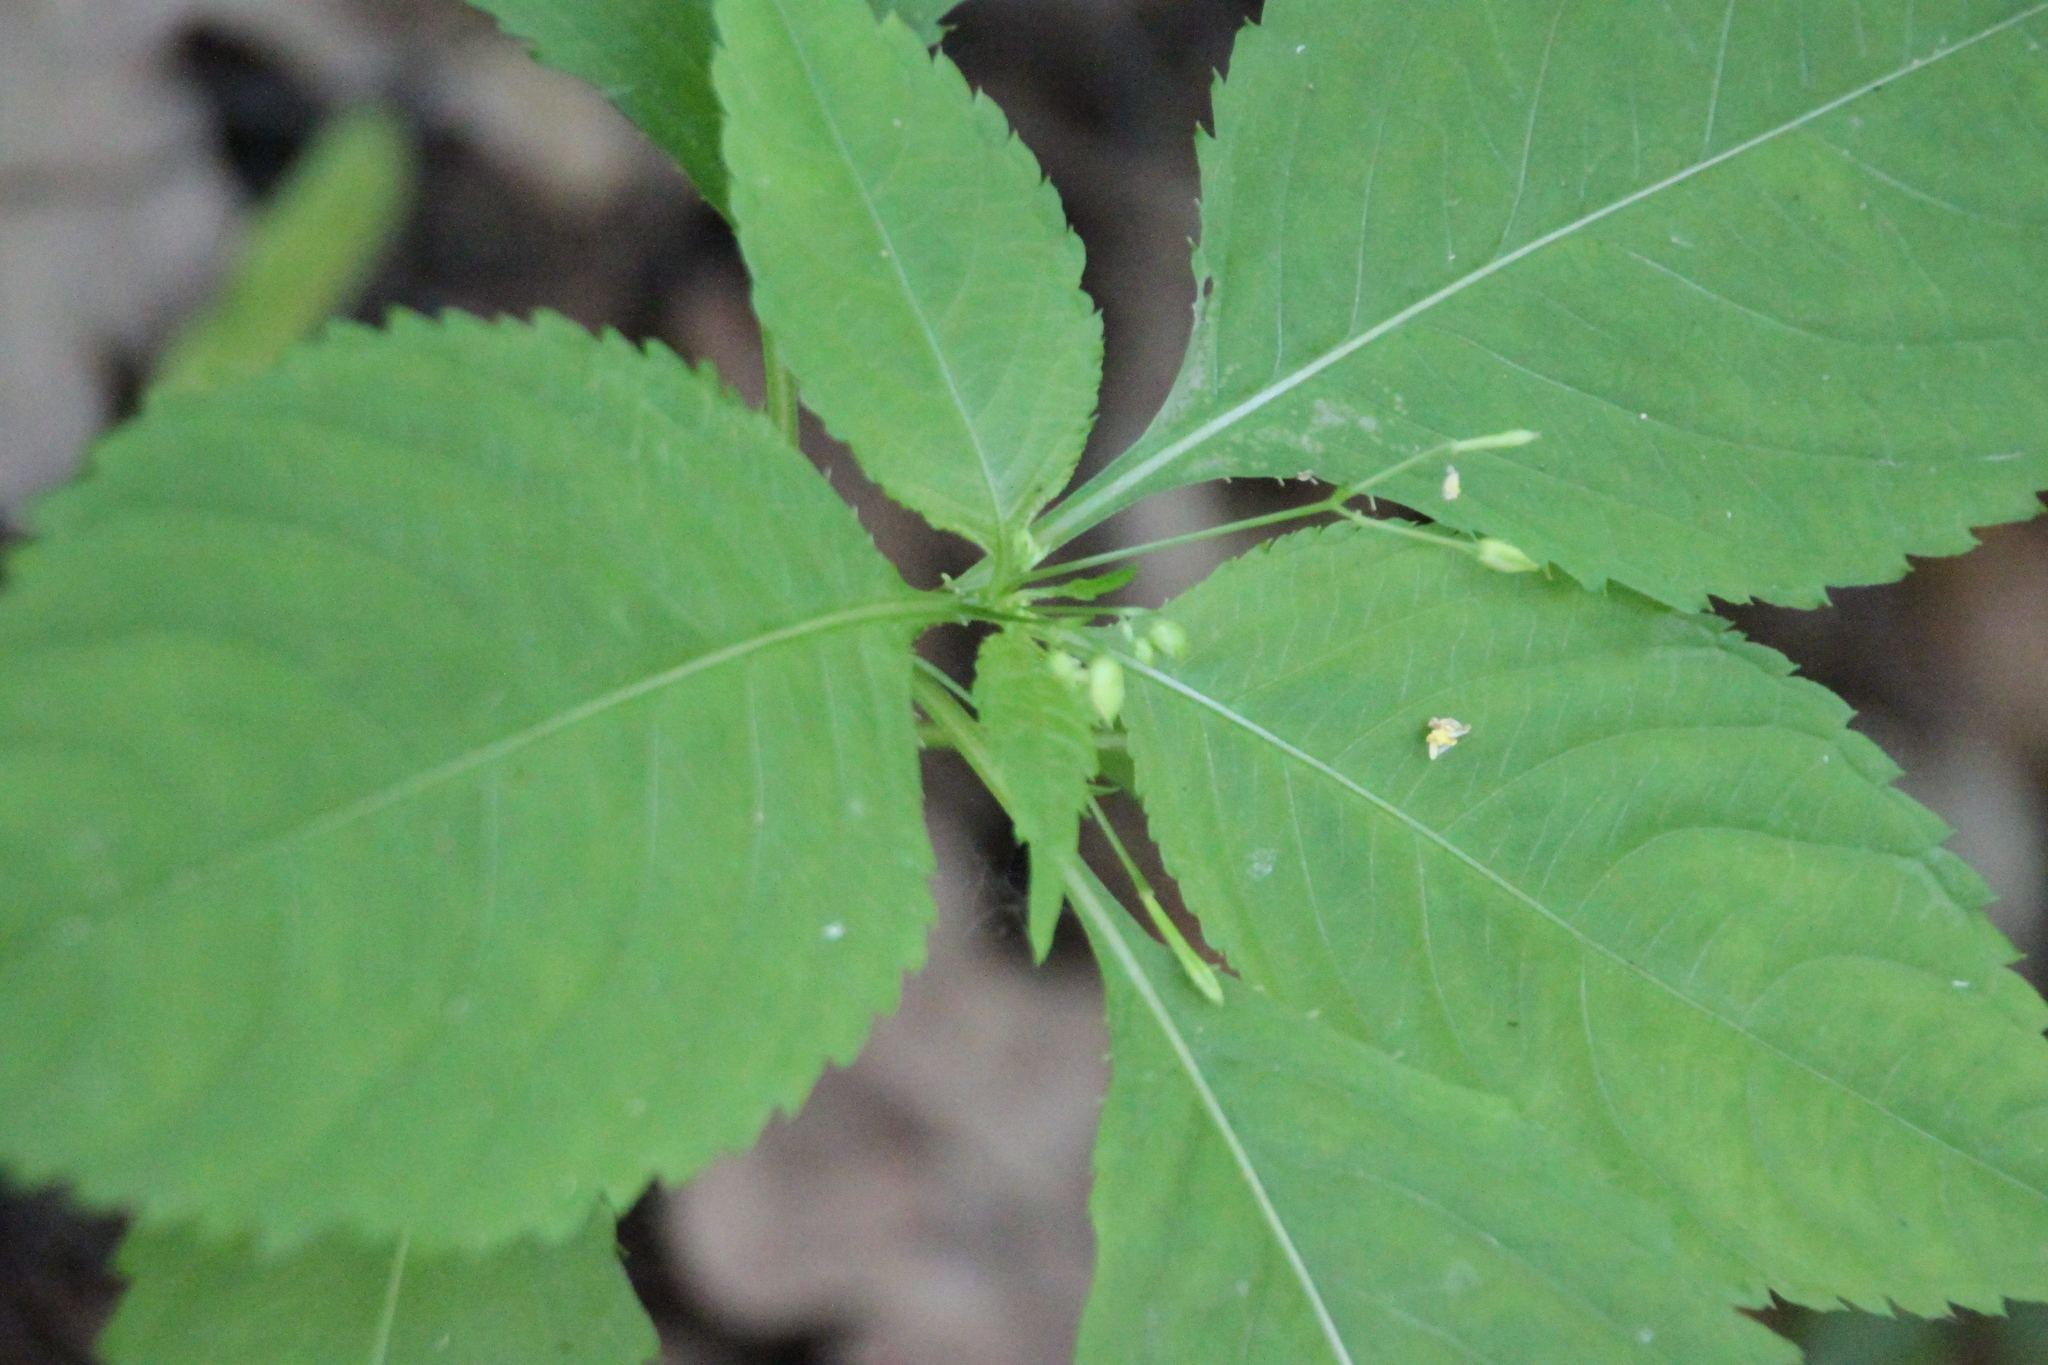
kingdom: Plantae
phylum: Tracheophyta
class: Magnoliopsida
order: Ericales
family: Balsaminaceae
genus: Impatiens
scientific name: Impatiens parviflora
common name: Small balsam
